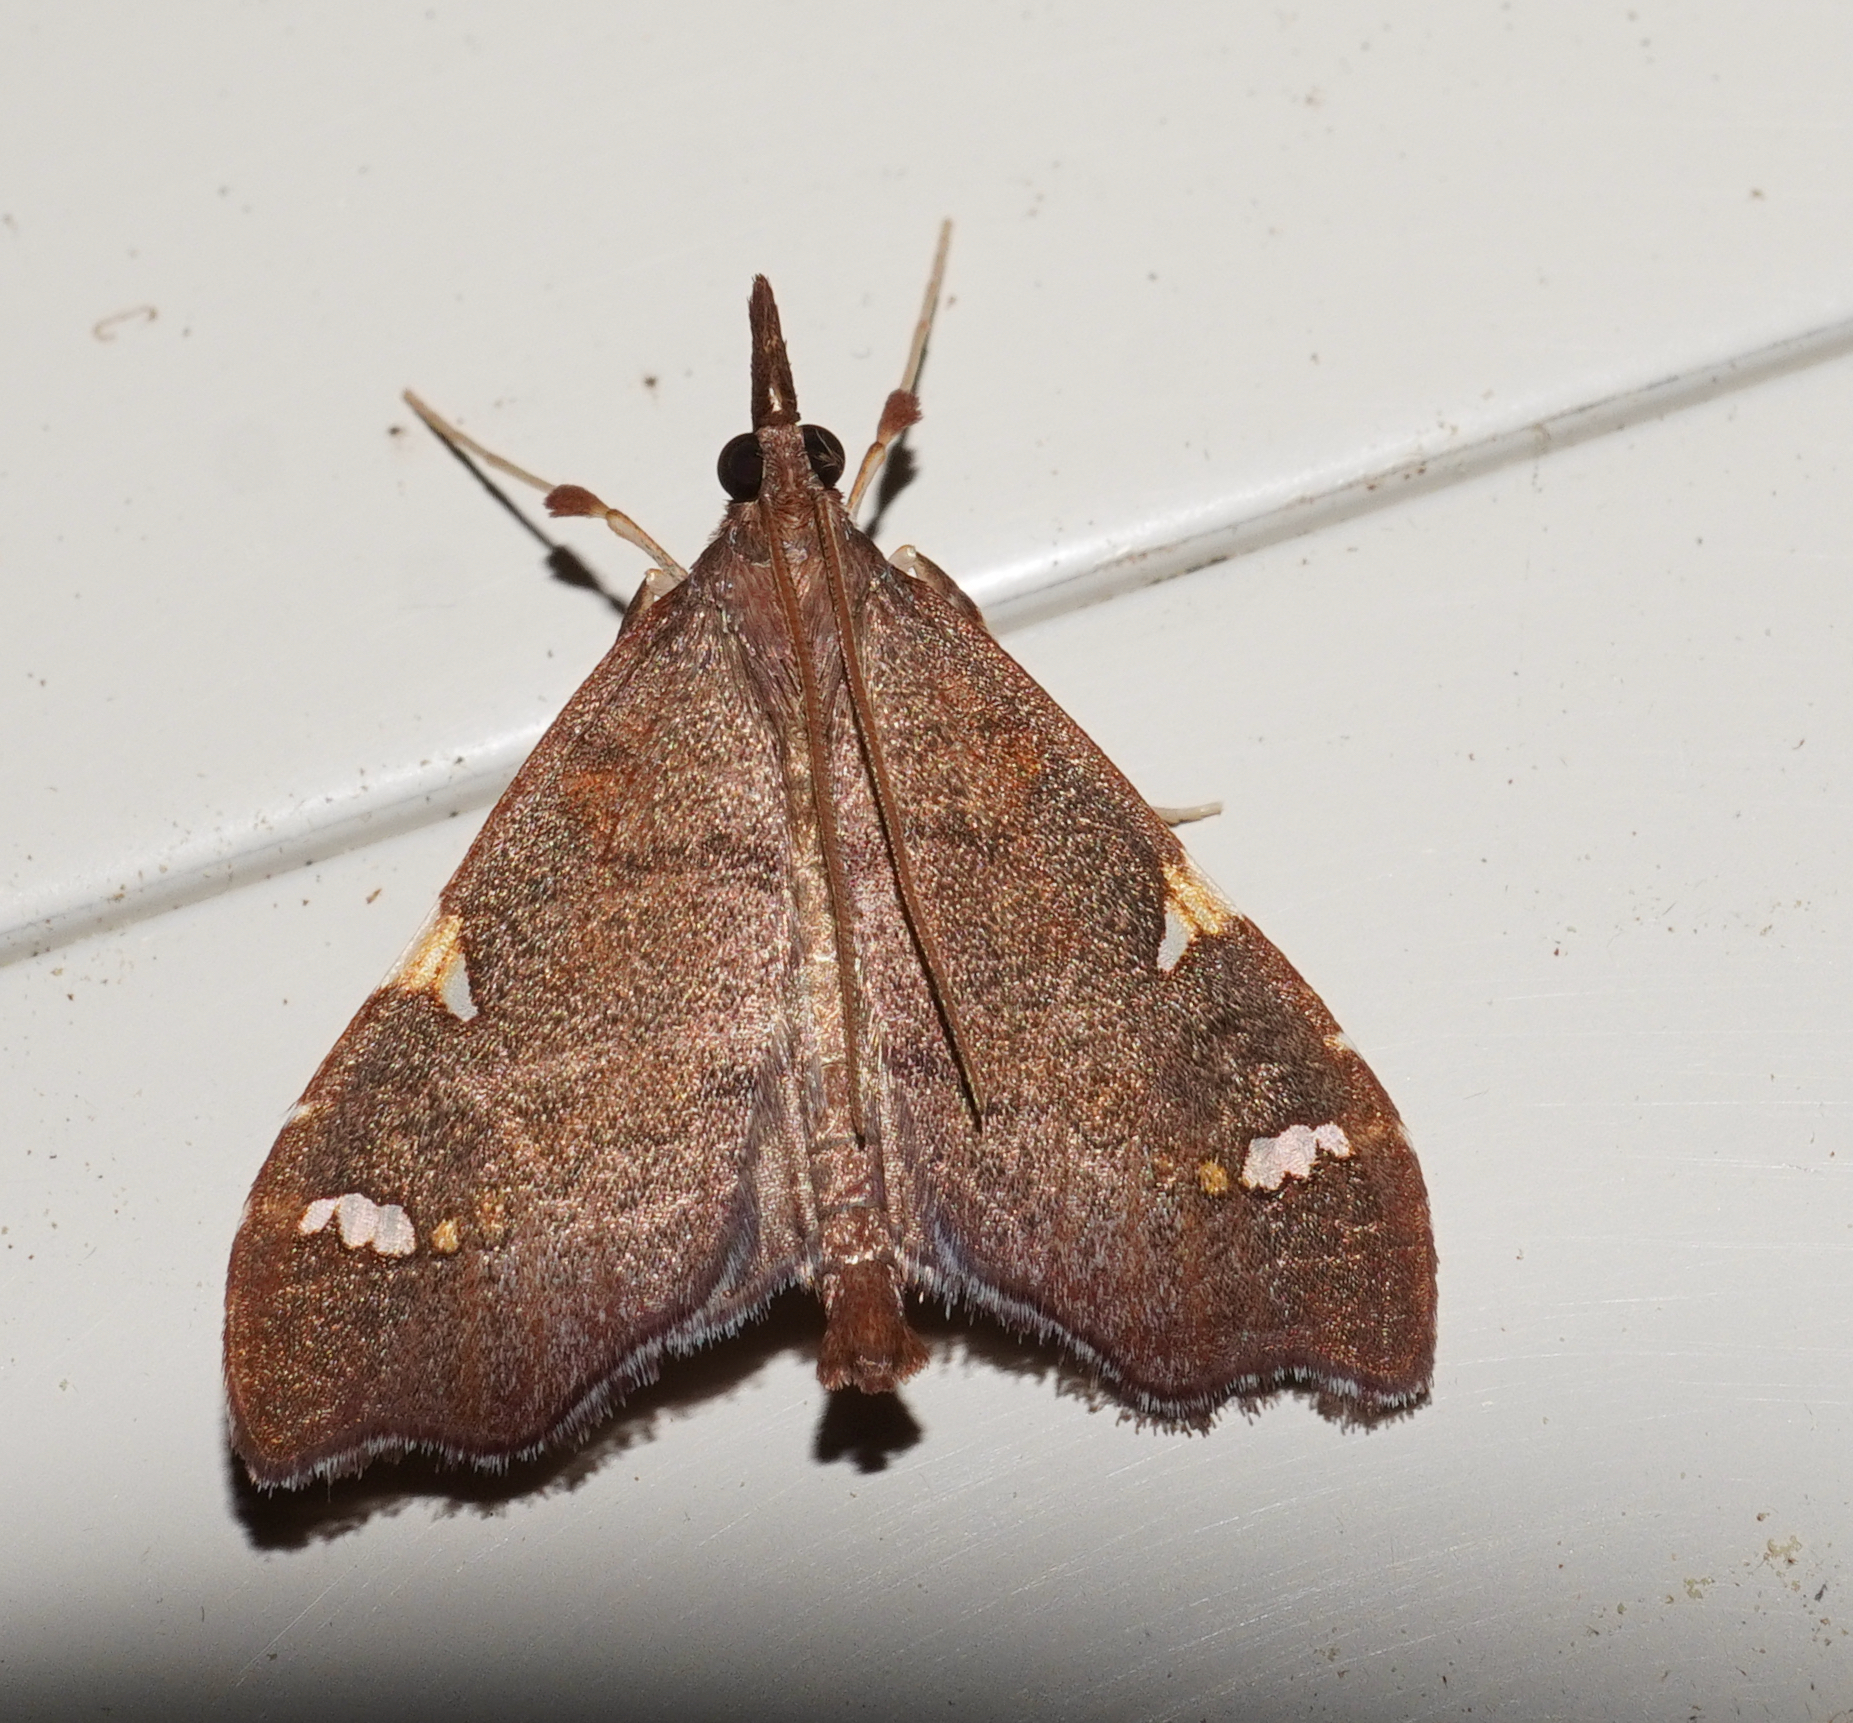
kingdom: Animalia
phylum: Arthropoda
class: Insecta
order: Lepidoptera
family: Crambidae
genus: Deana
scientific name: Deana hybreasalis
